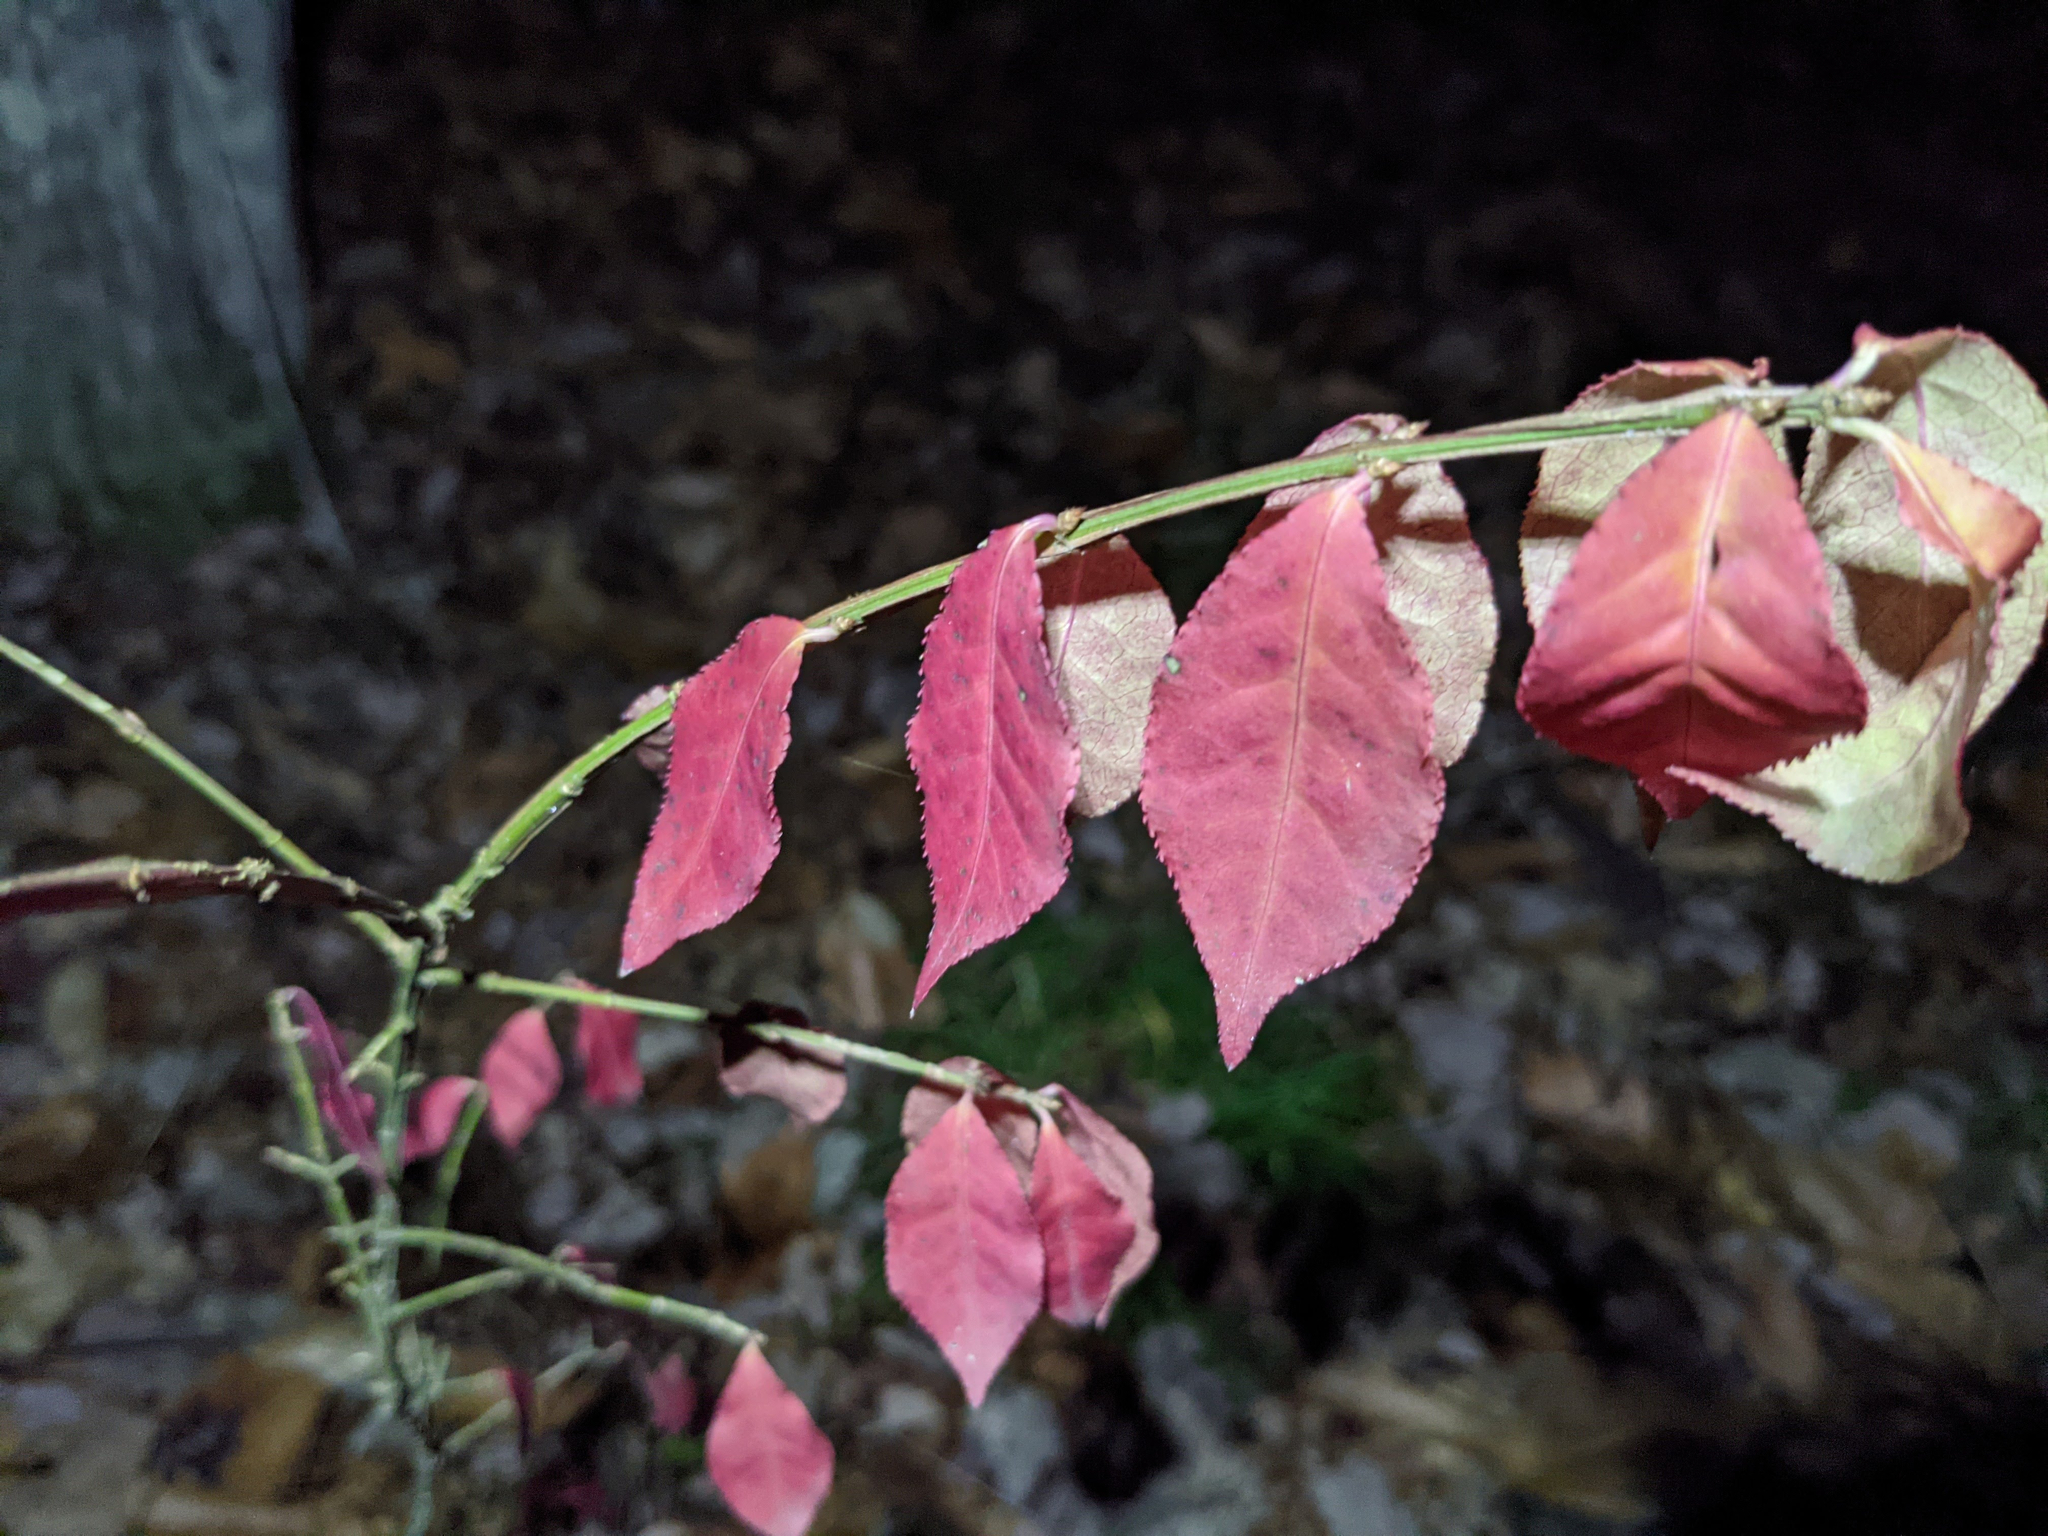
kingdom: Plantae
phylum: Tracheophyta
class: Magnoliopsida
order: Celastrales
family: Celastraceae
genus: Euonymus
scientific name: Euonymus alatus
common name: Winged euonymus
